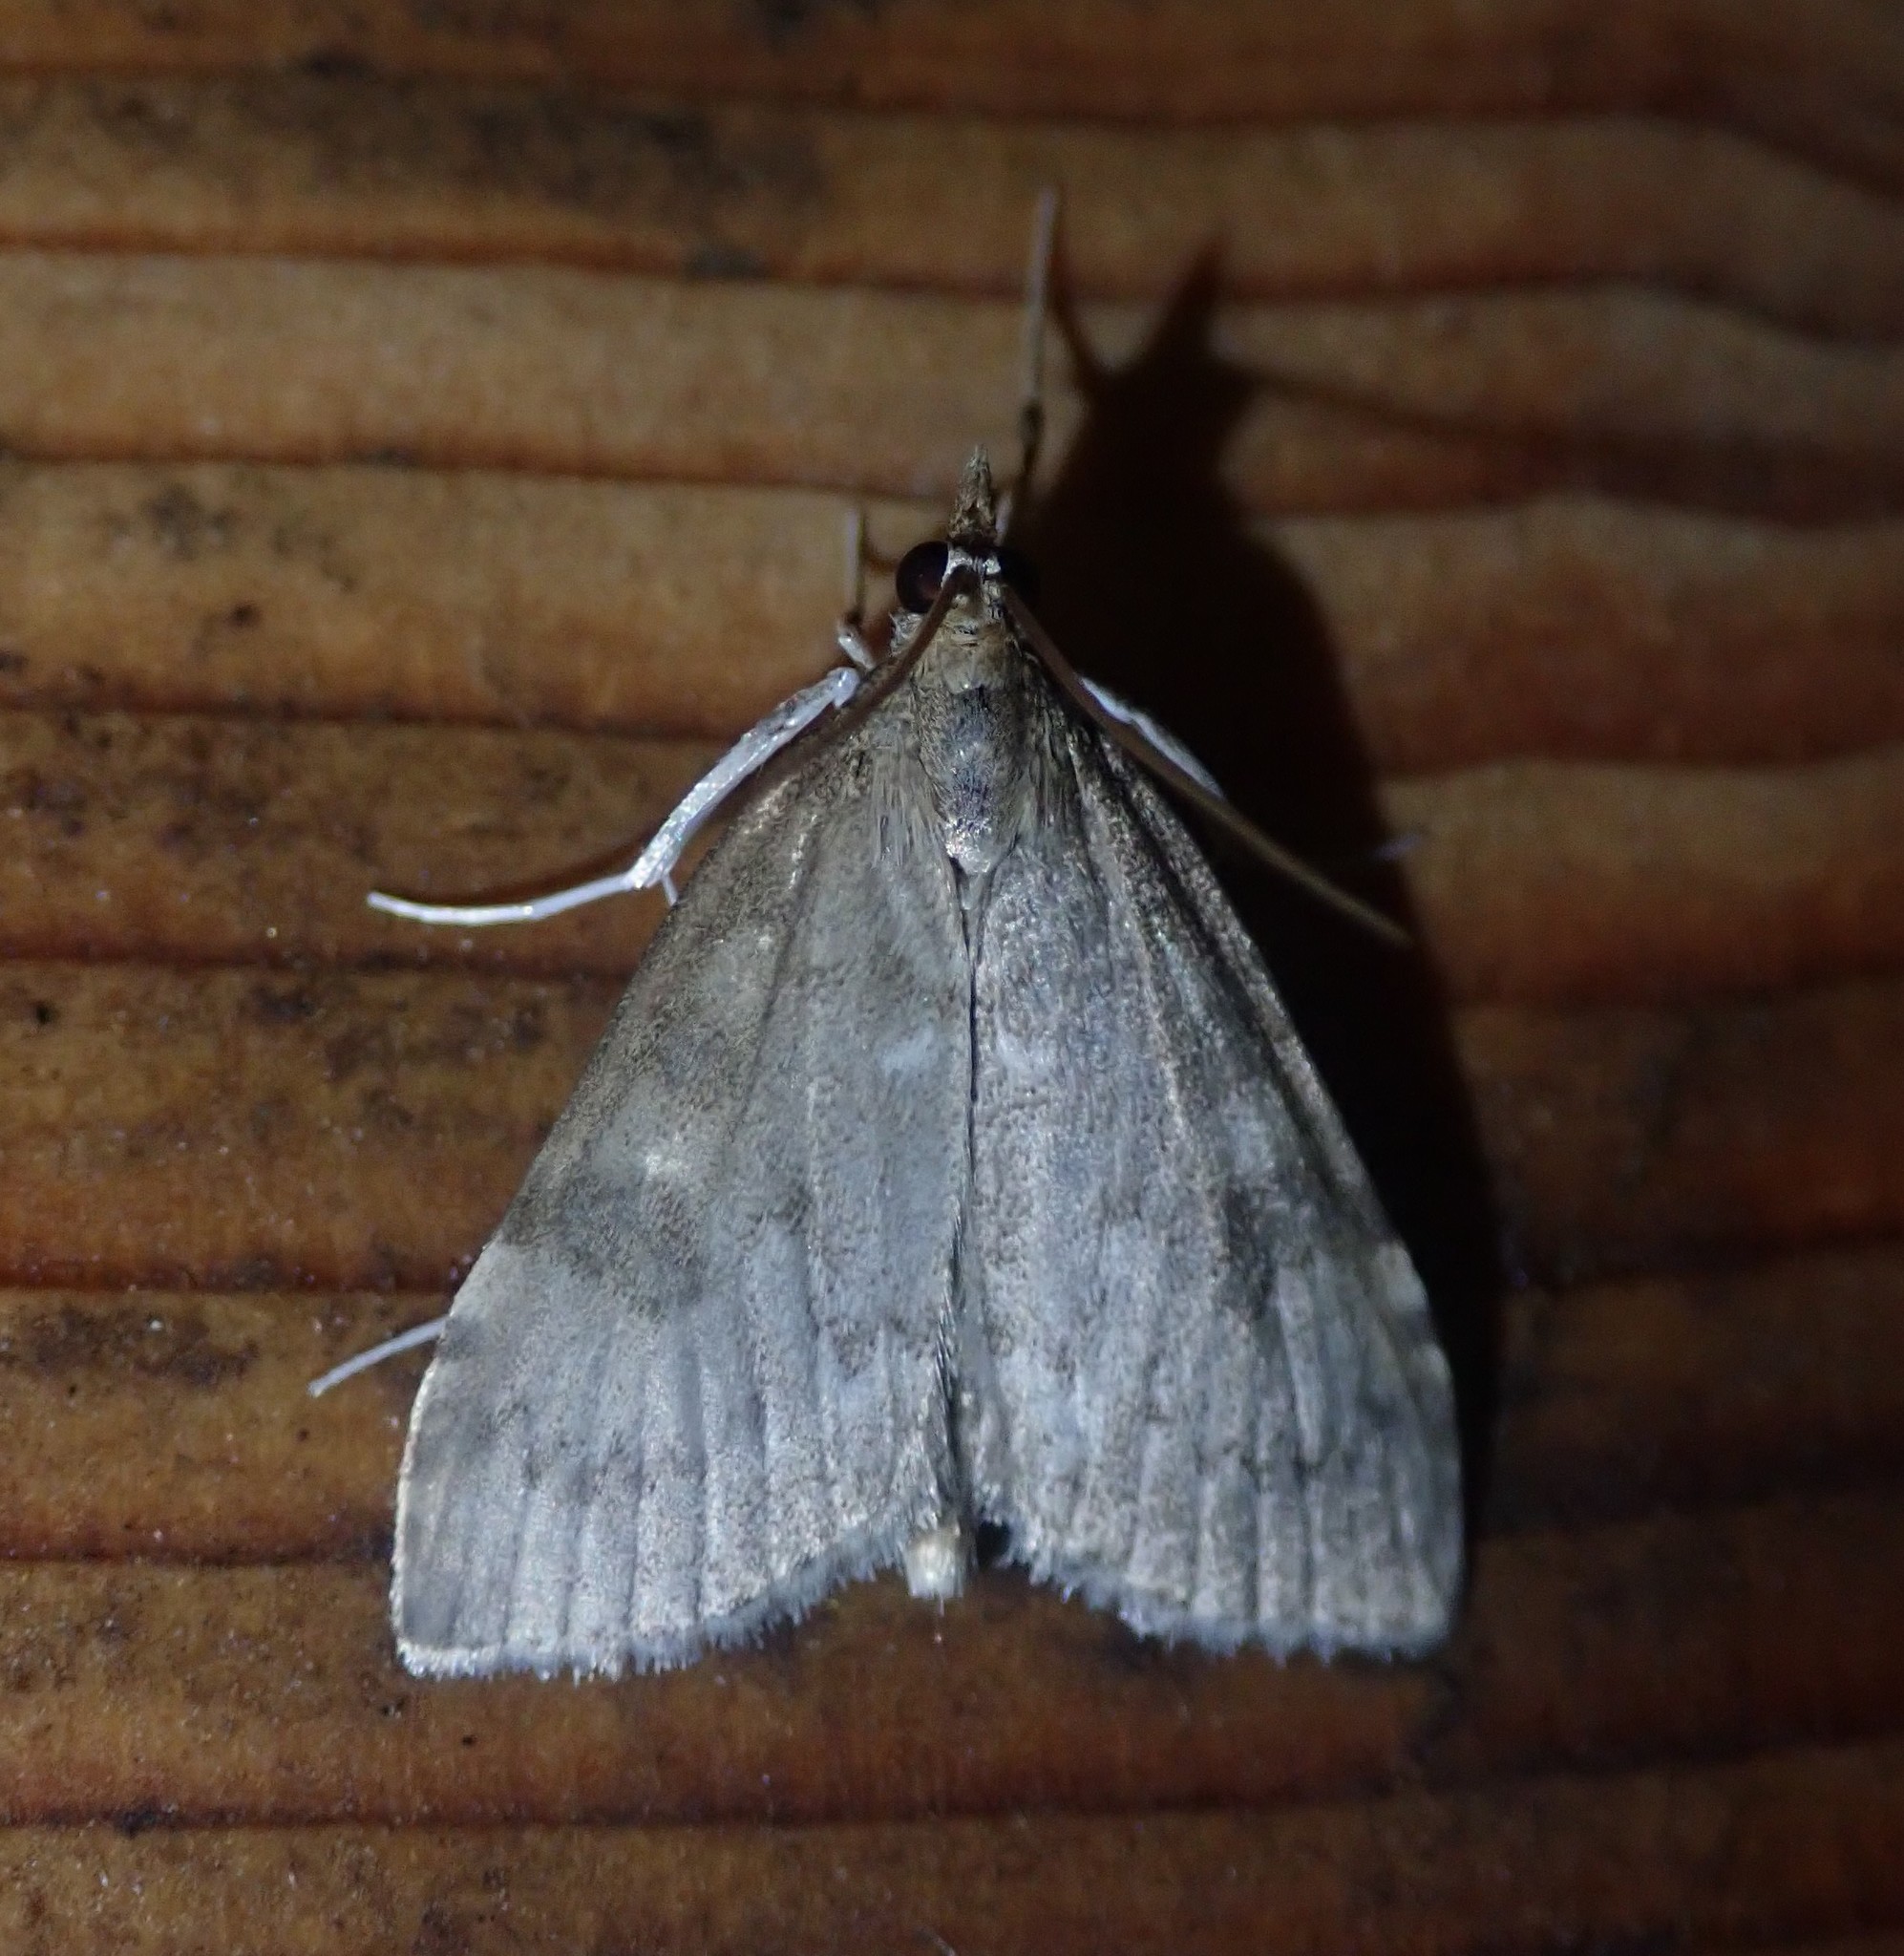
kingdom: Animalia
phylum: Arthropoda
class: Insecta
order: Lepidoptera
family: Crambidae
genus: Udea
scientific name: Udea prunalis
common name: Dusky pearl
